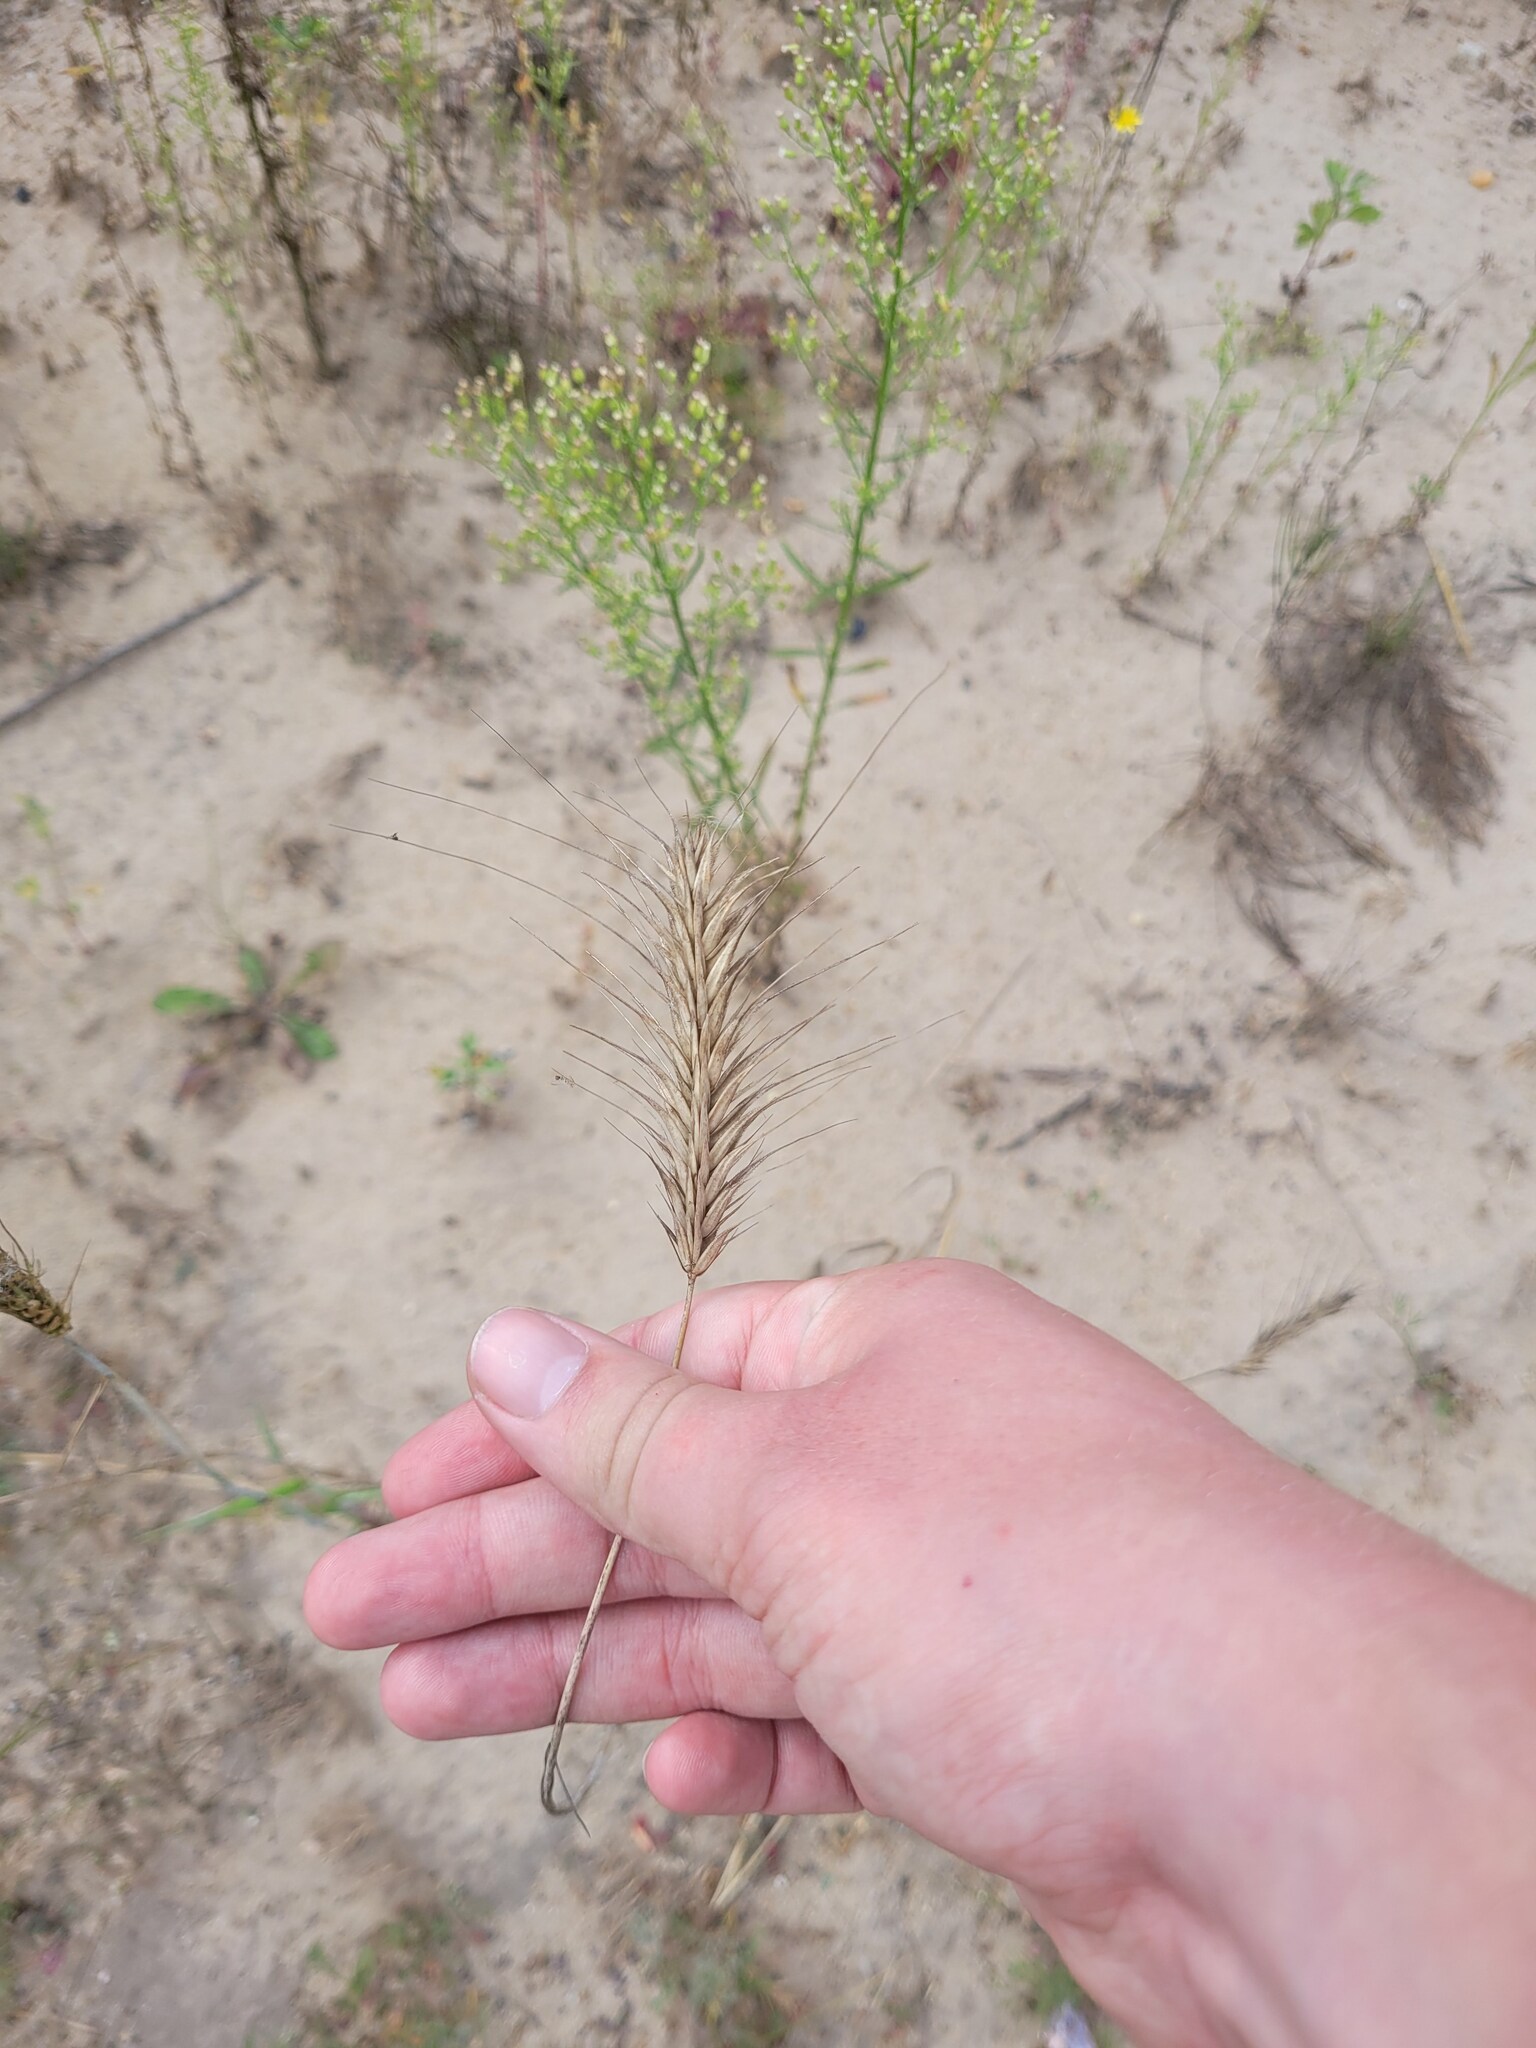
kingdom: Plantae
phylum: Tracheophyta
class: Liliopsida
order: Poales
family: Poaceae
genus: Secale
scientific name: Secale cereale
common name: Rye
